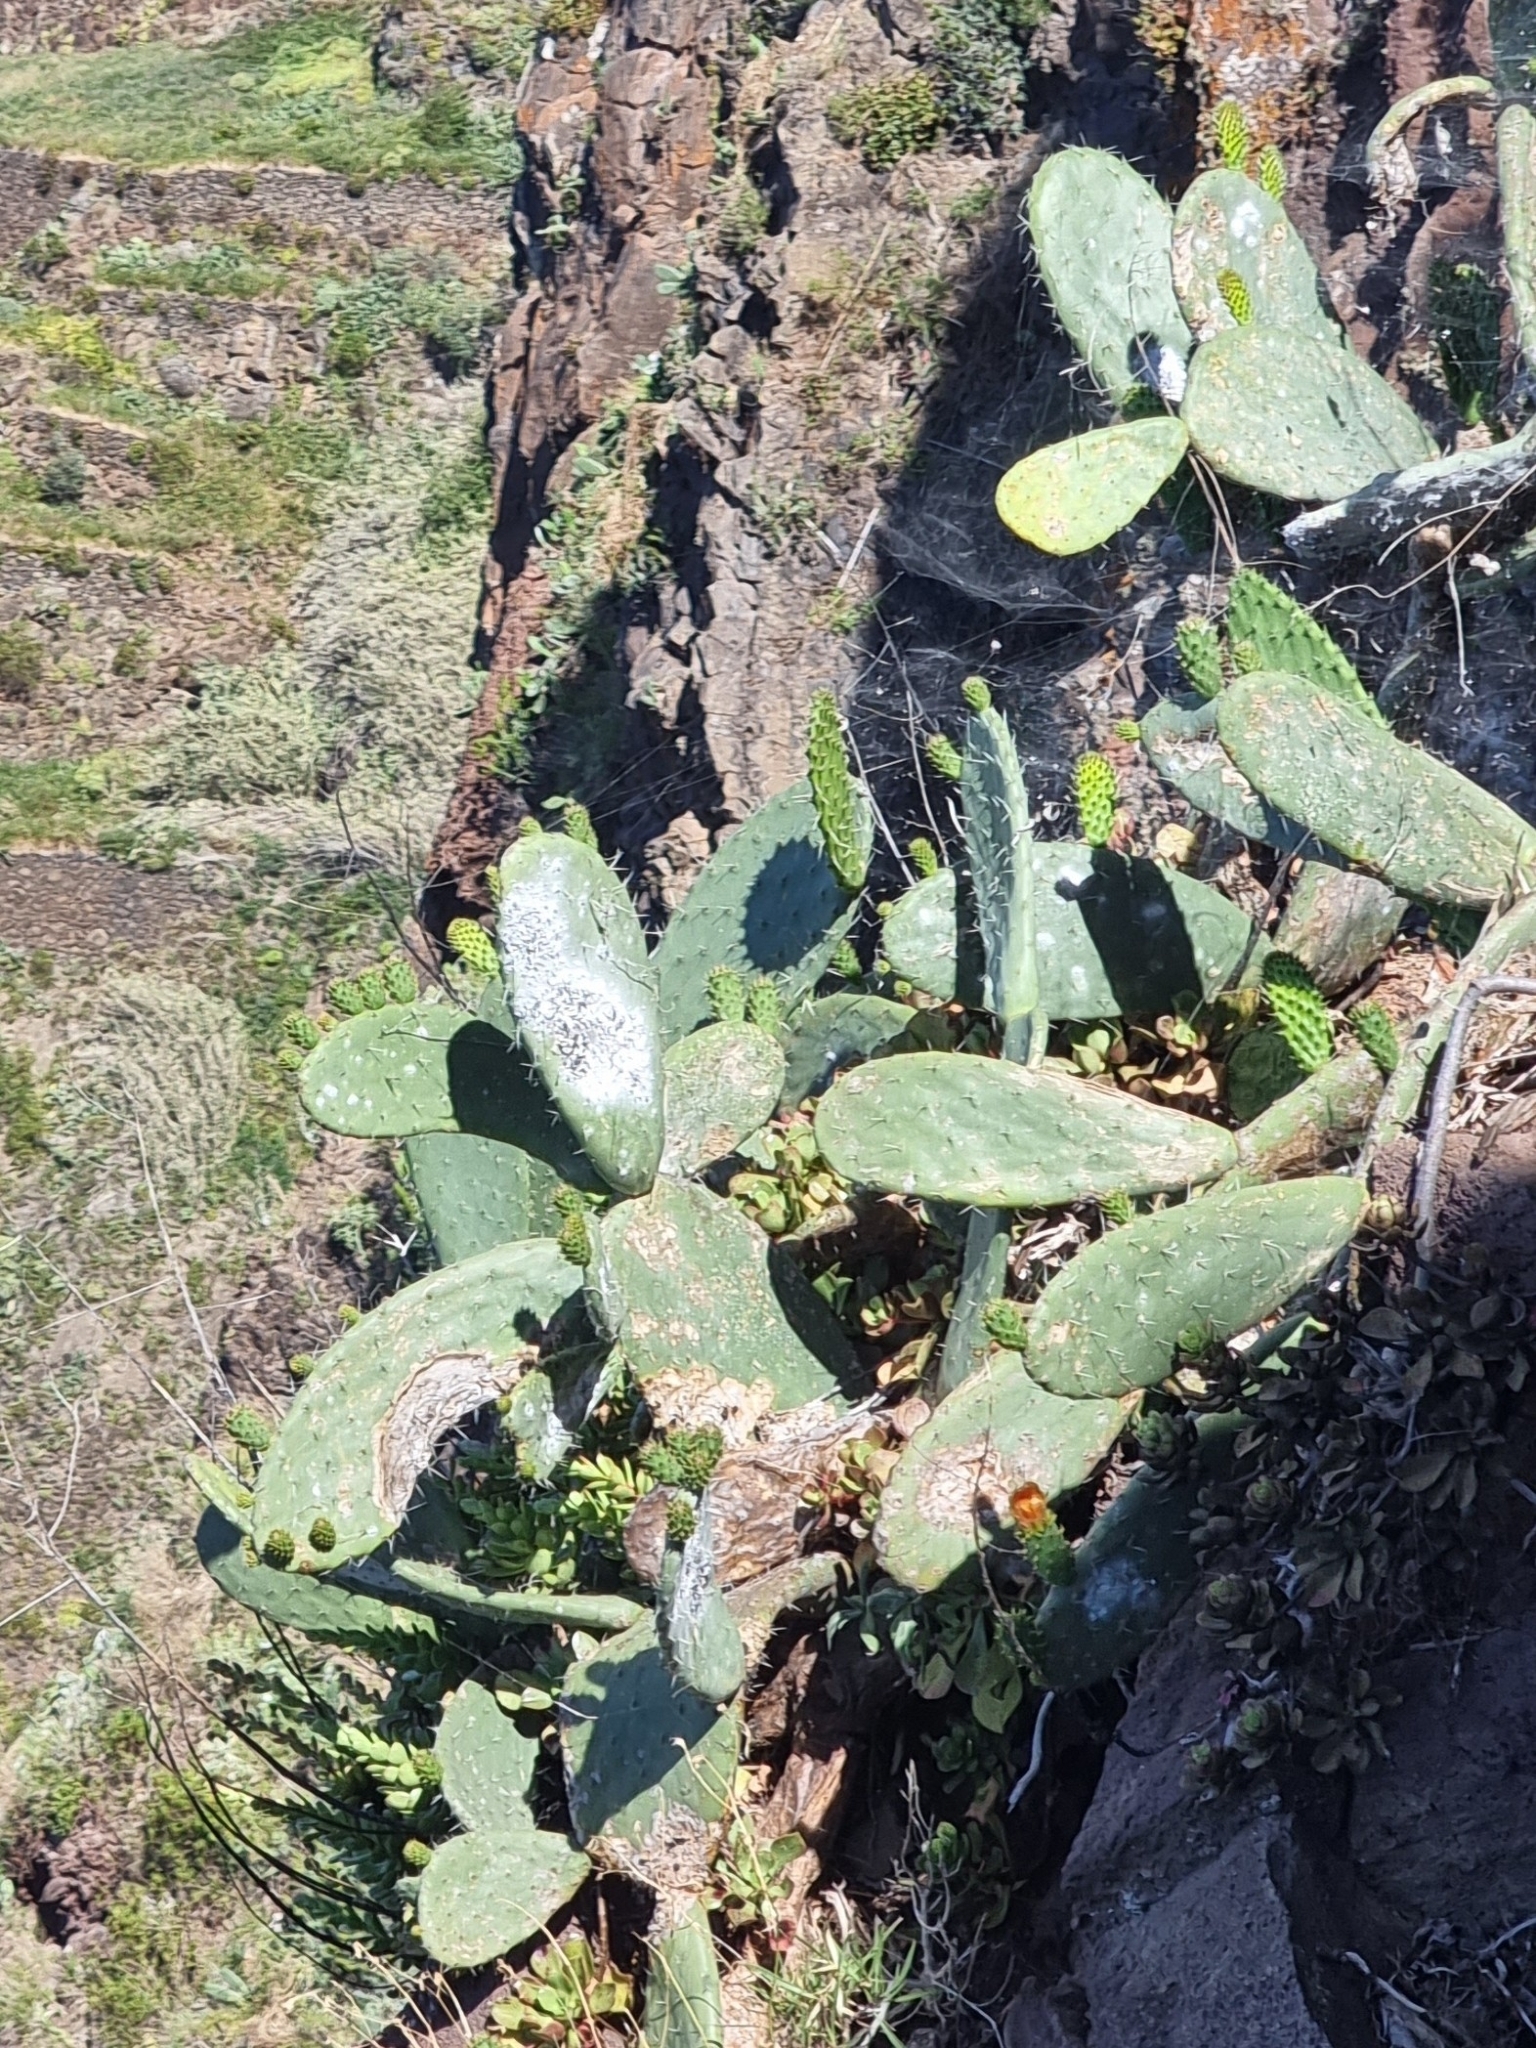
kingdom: Plantae
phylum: Tracheophyta
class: Magnoliopsida
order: Caryophyllales
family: Cactaceae
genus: Opuntia
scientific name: Opuntia ficus-indica
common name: Barbary fig
